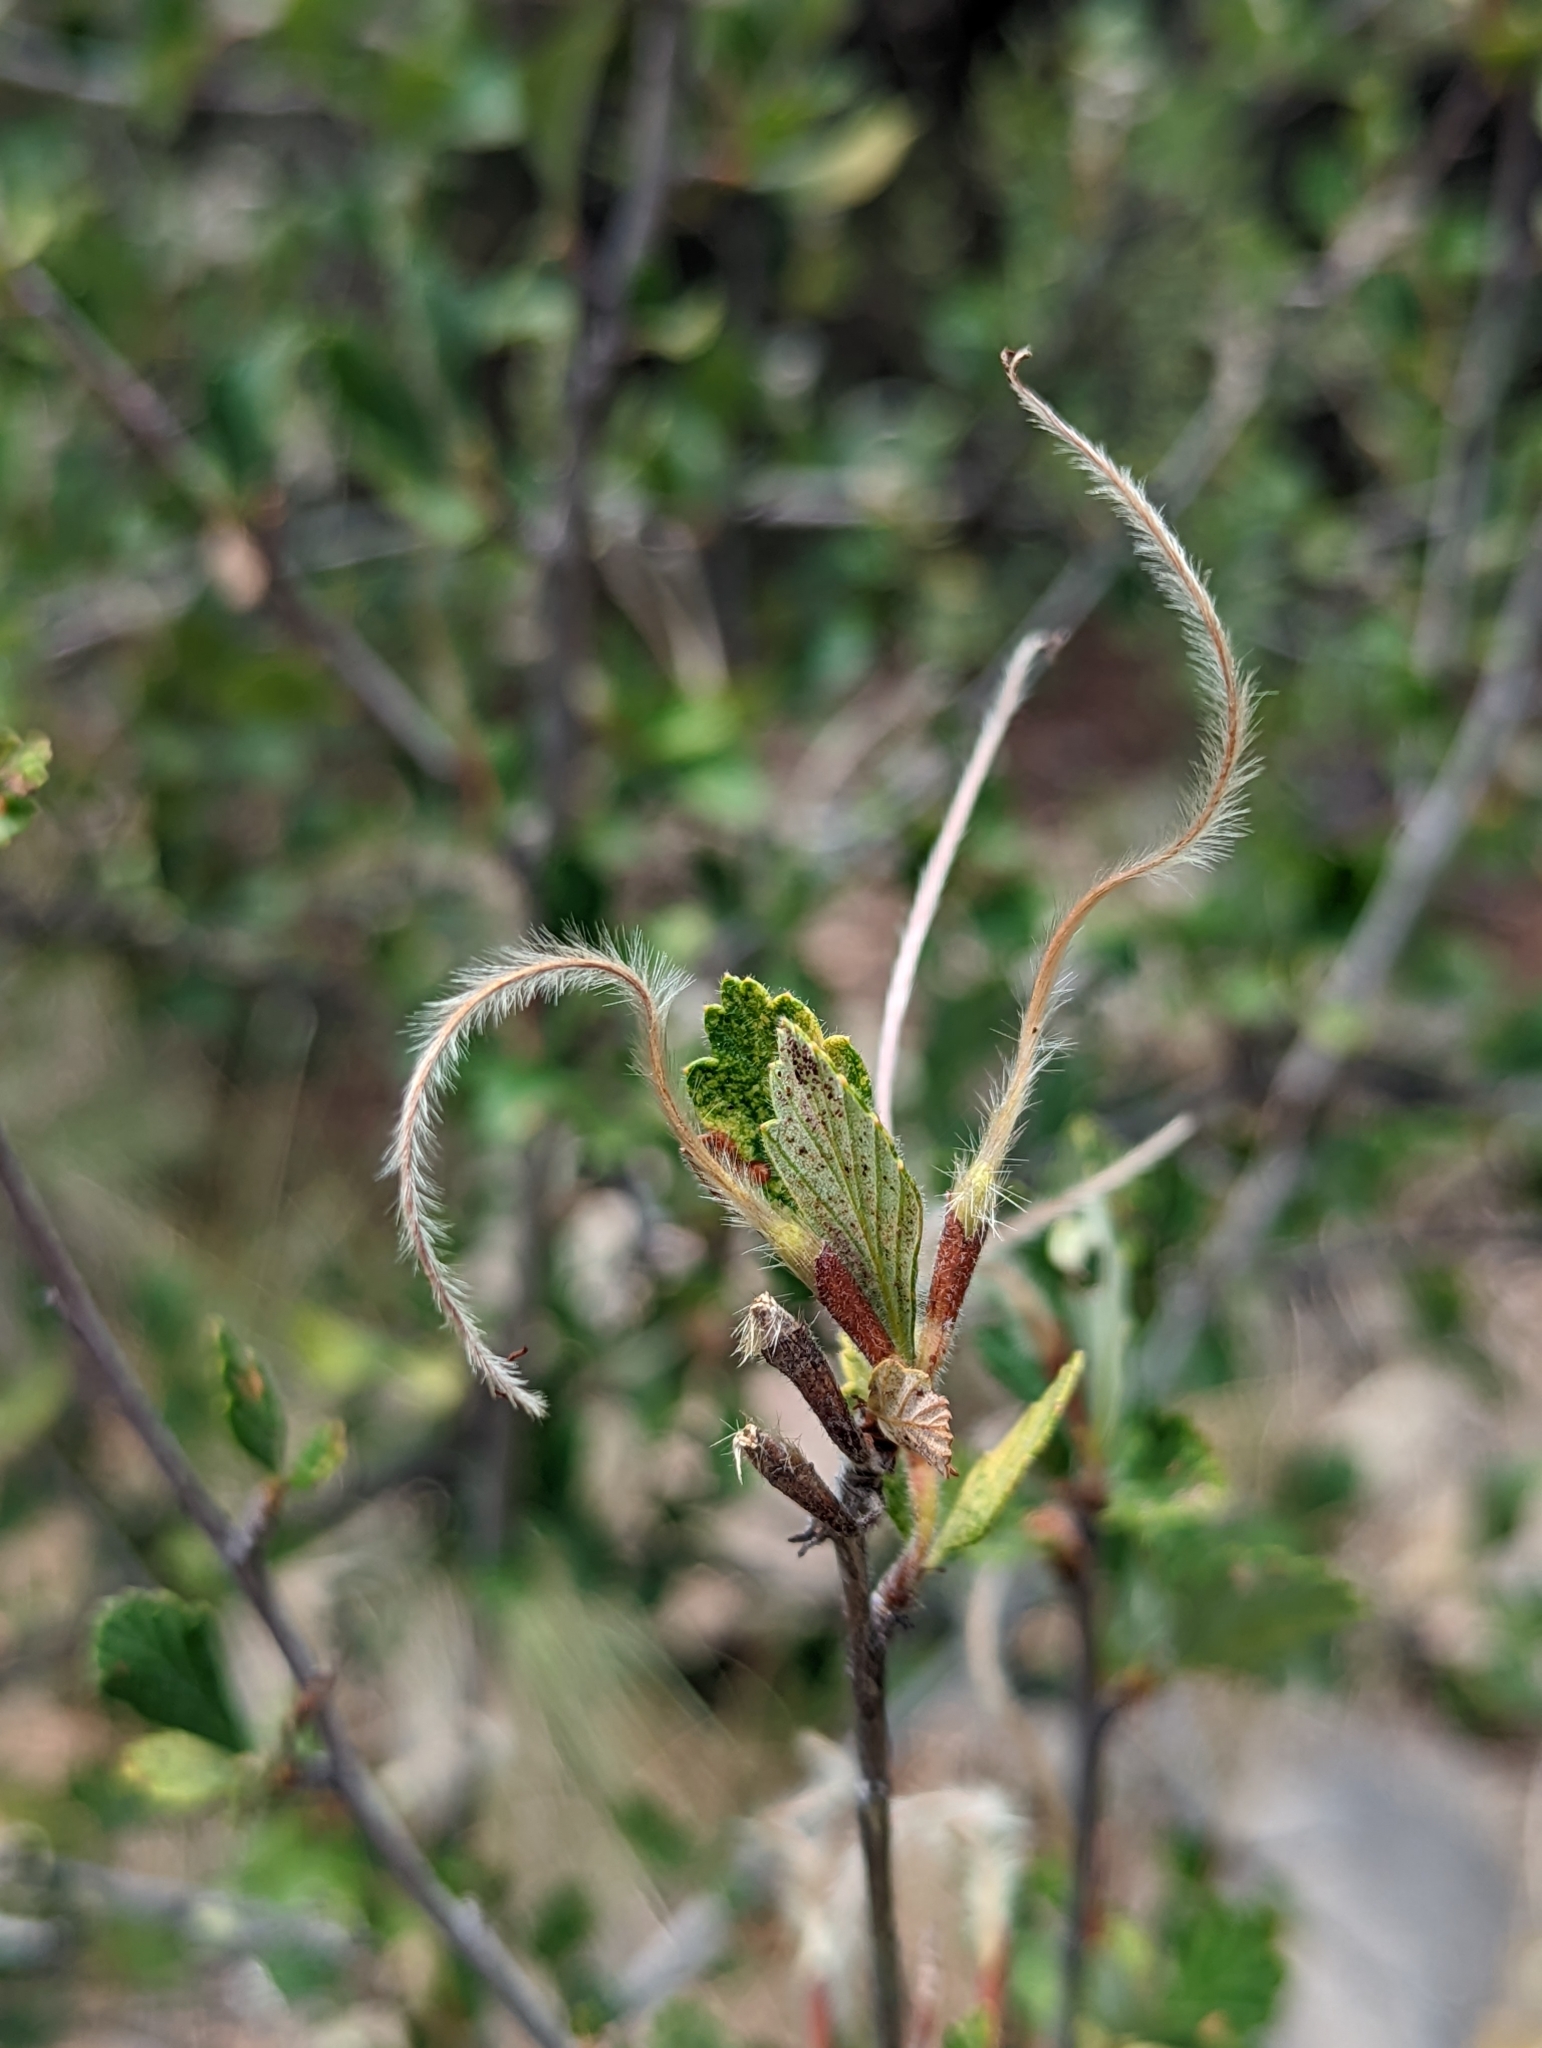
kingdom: Plantae
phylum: Tracheophyta
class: Magnoliopsida
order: Rosales
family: Rosaceae
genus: Cercocarpus
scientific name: Cercocarpus montanus
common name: Alder-leaf cercocarpus
